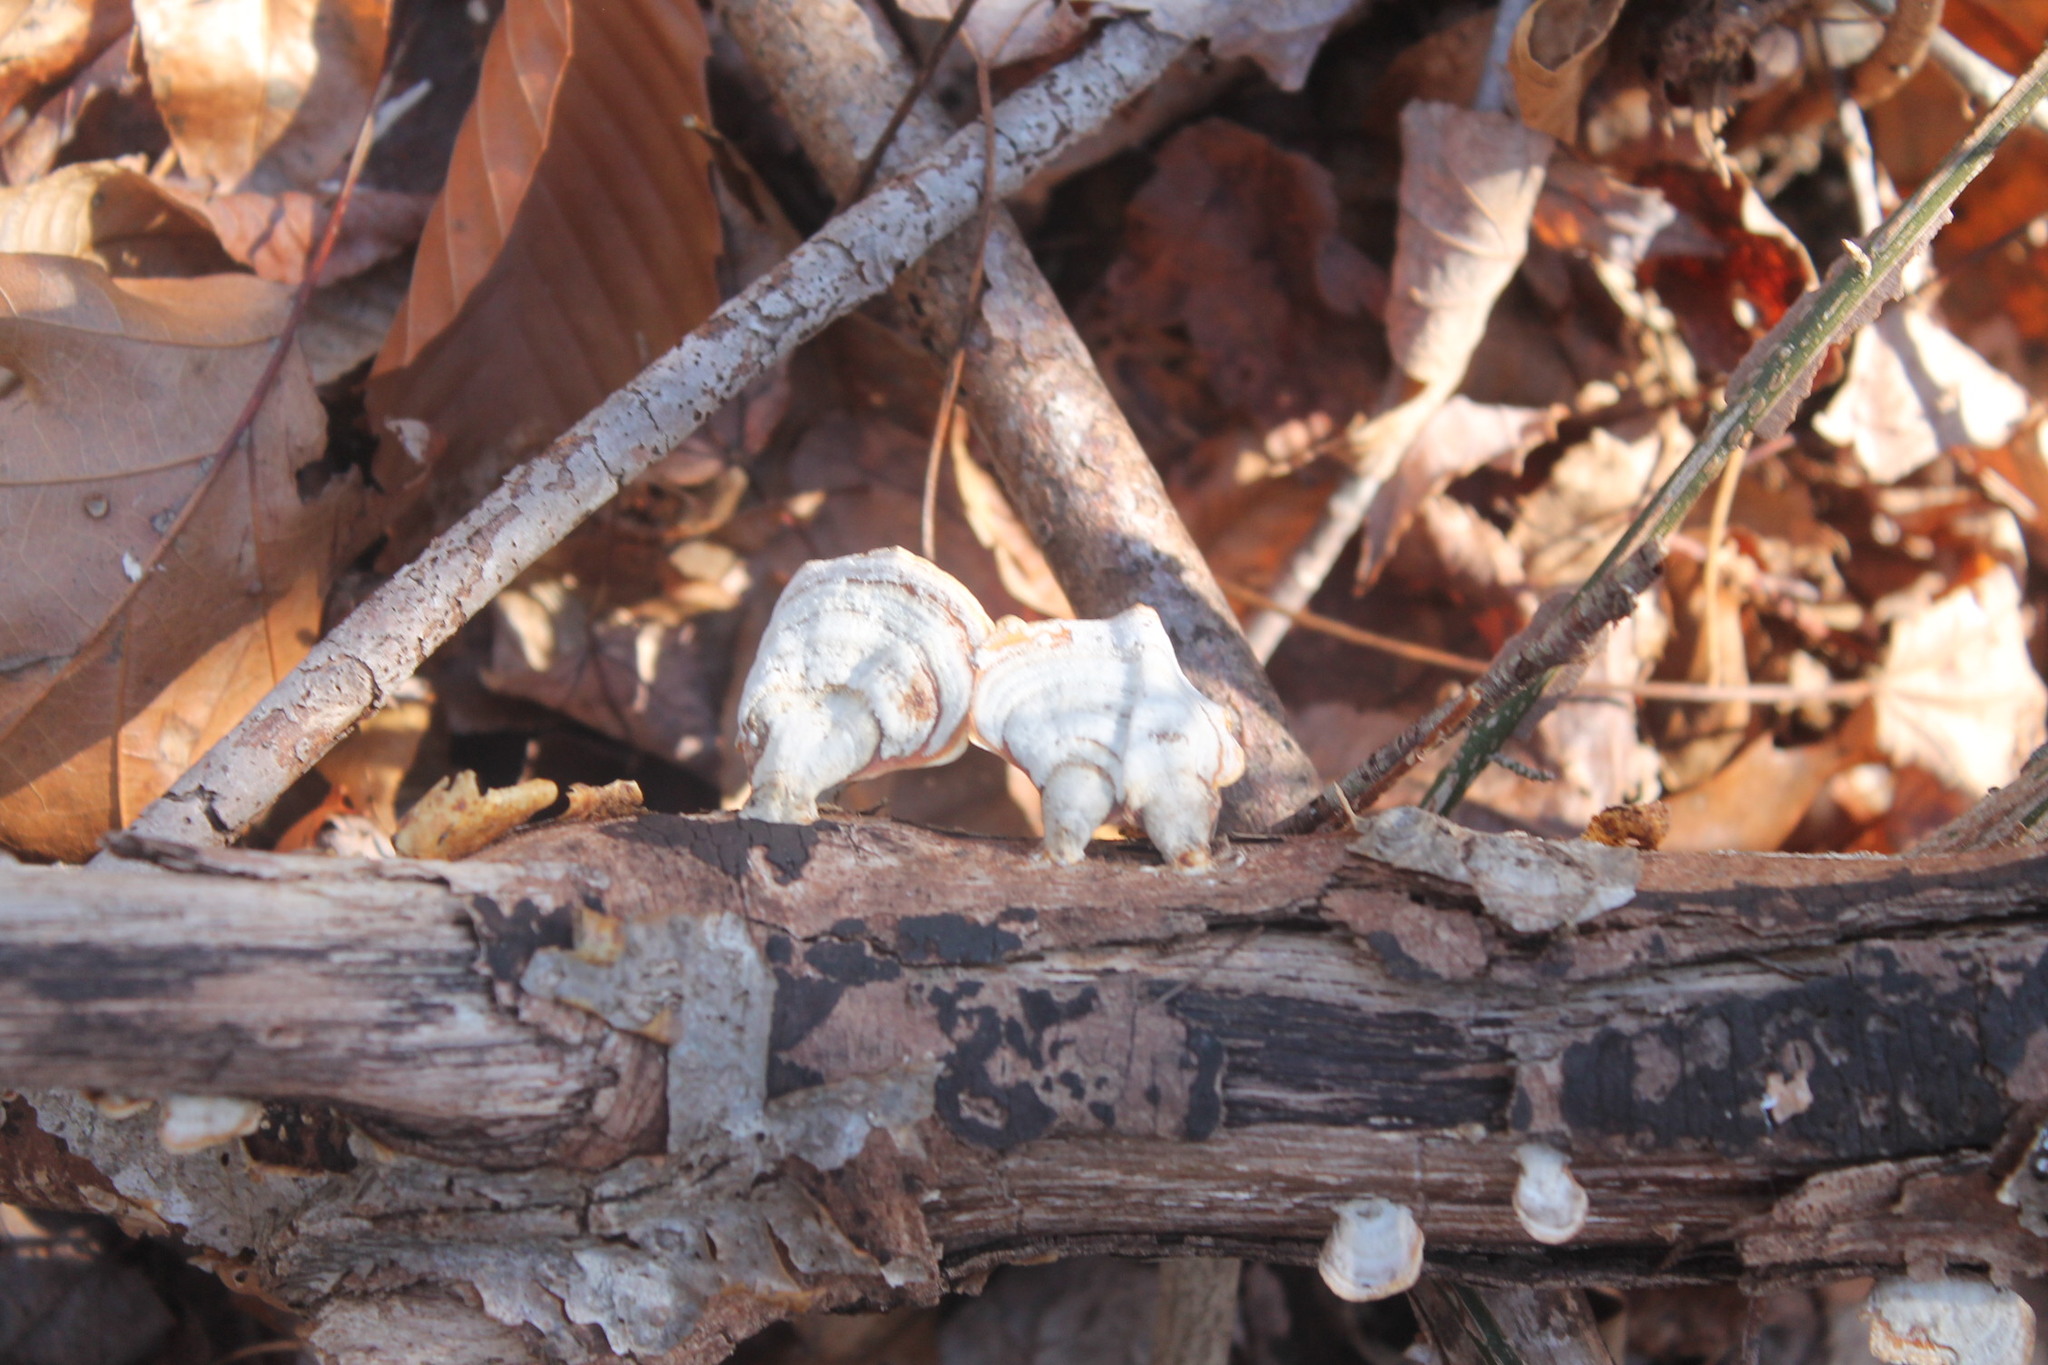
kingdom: Fungi
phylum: Basidiomycota
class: Agaricomycetes
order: Russulales
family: Stereaceae
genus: Stereum
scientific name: Stereum lobatum
